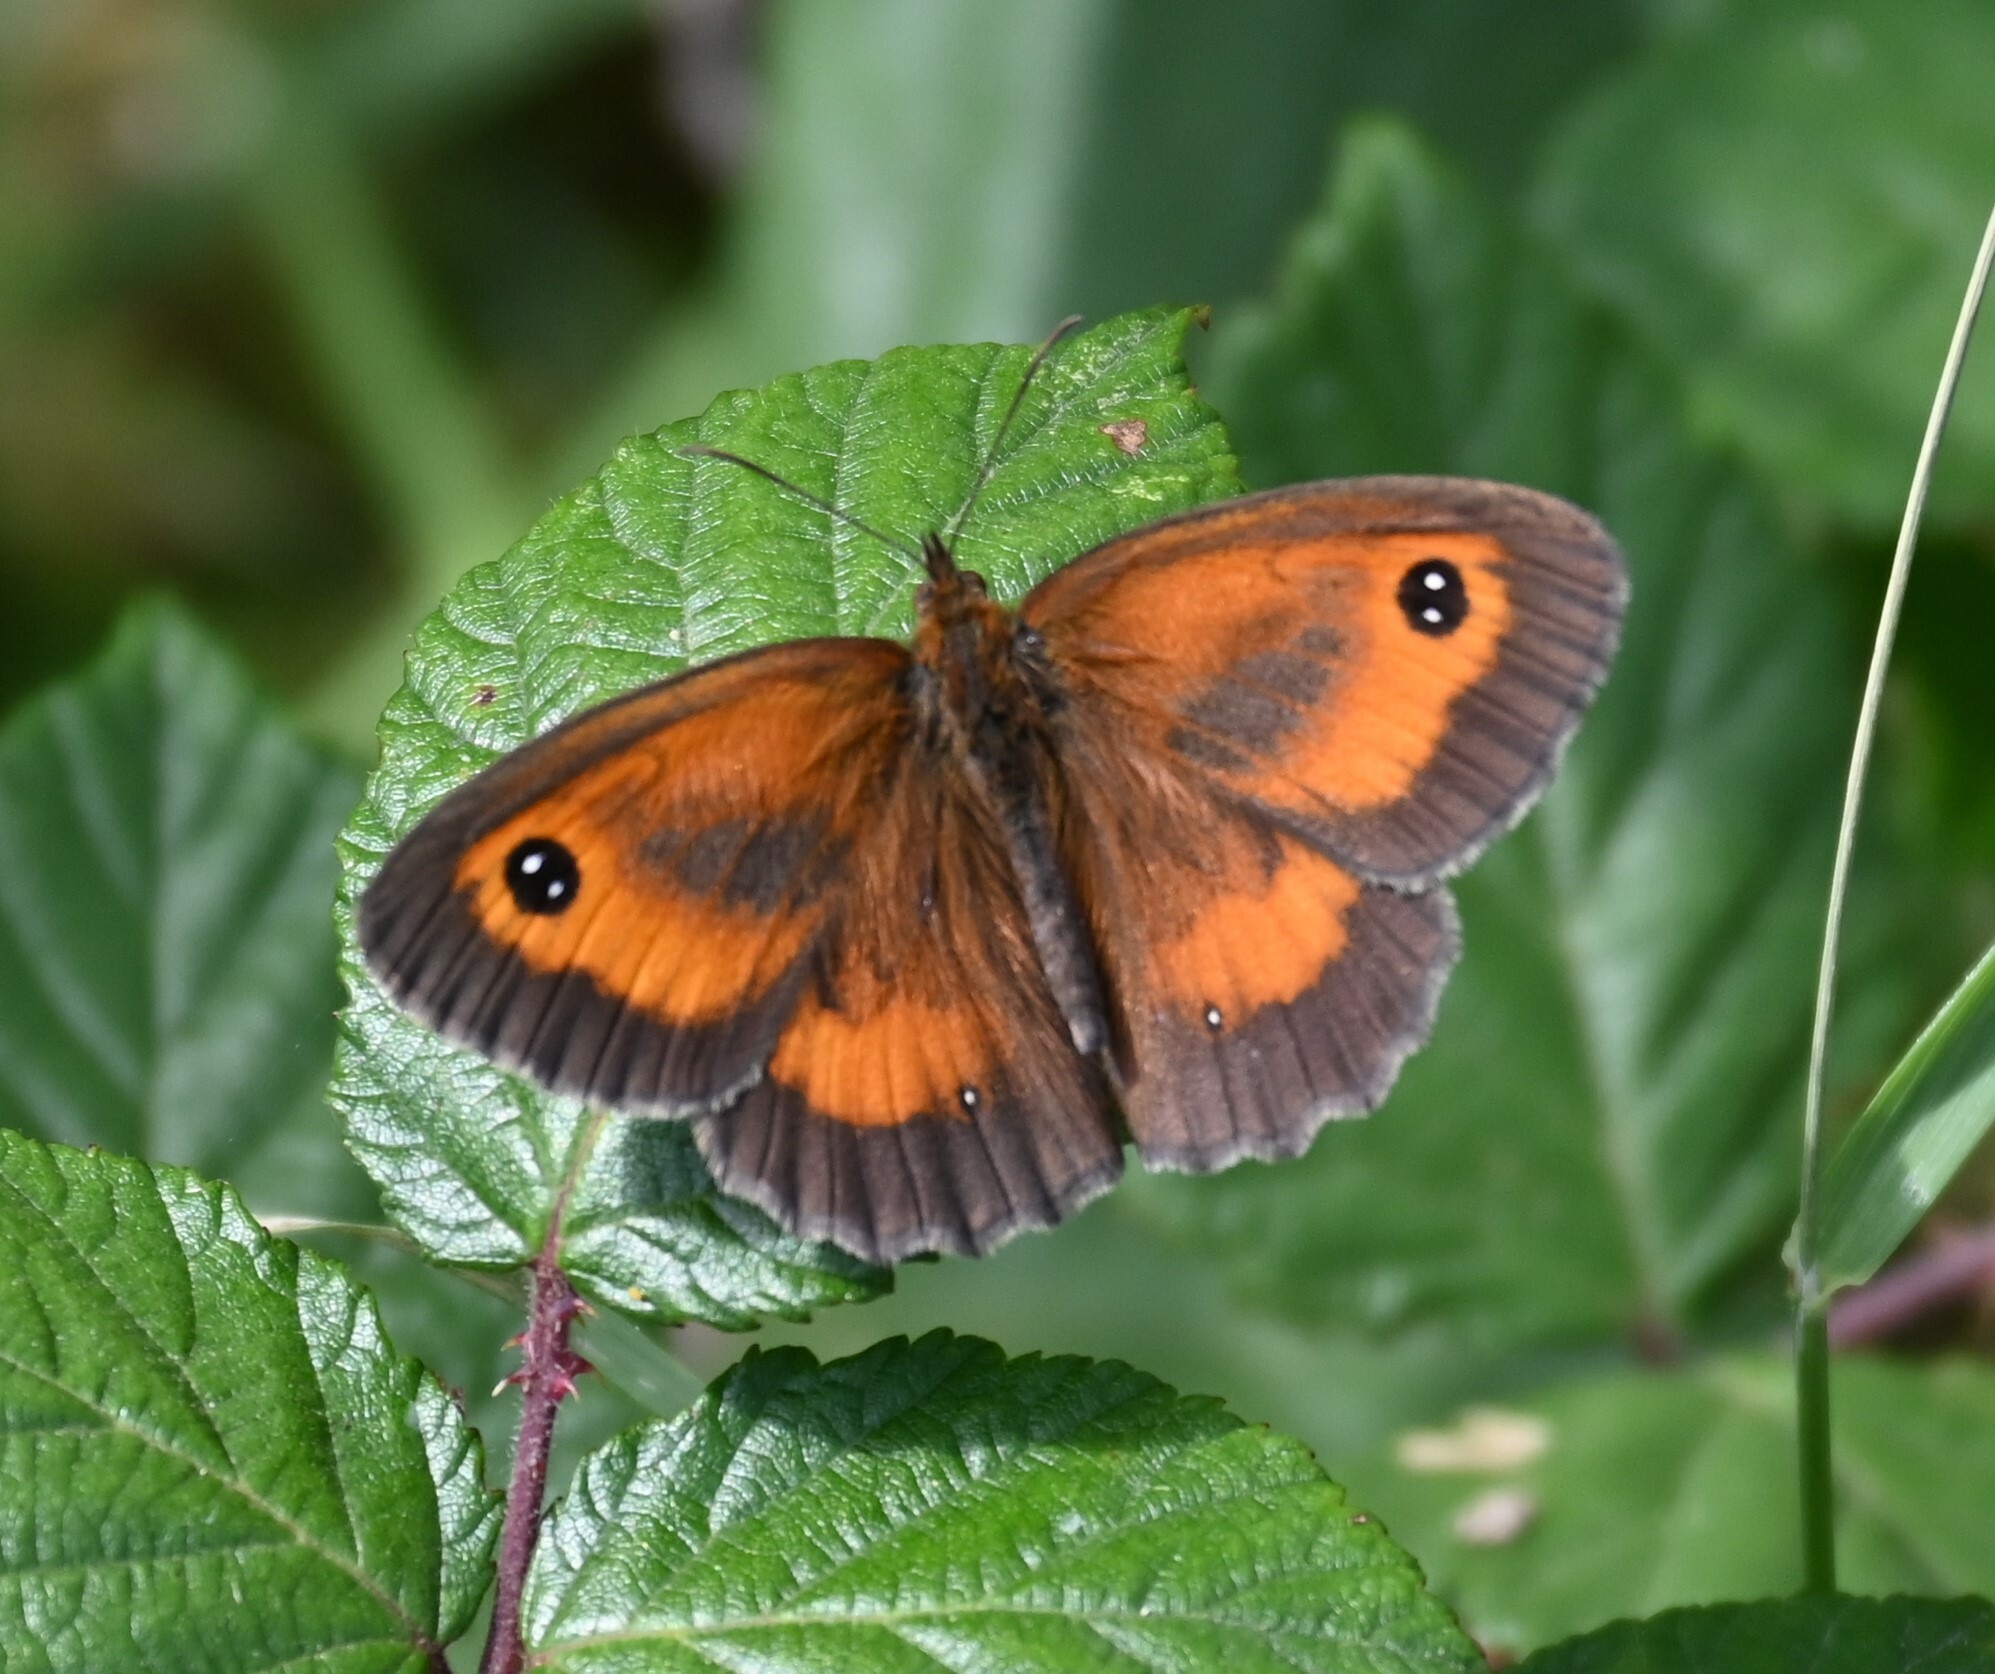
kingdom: Animalia
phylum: Arthropoda
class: Insecta
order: Lepidoptera
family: Nymphalidae
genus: Pyronia
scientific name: Pyronia tithonus
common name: Gatekeeper
